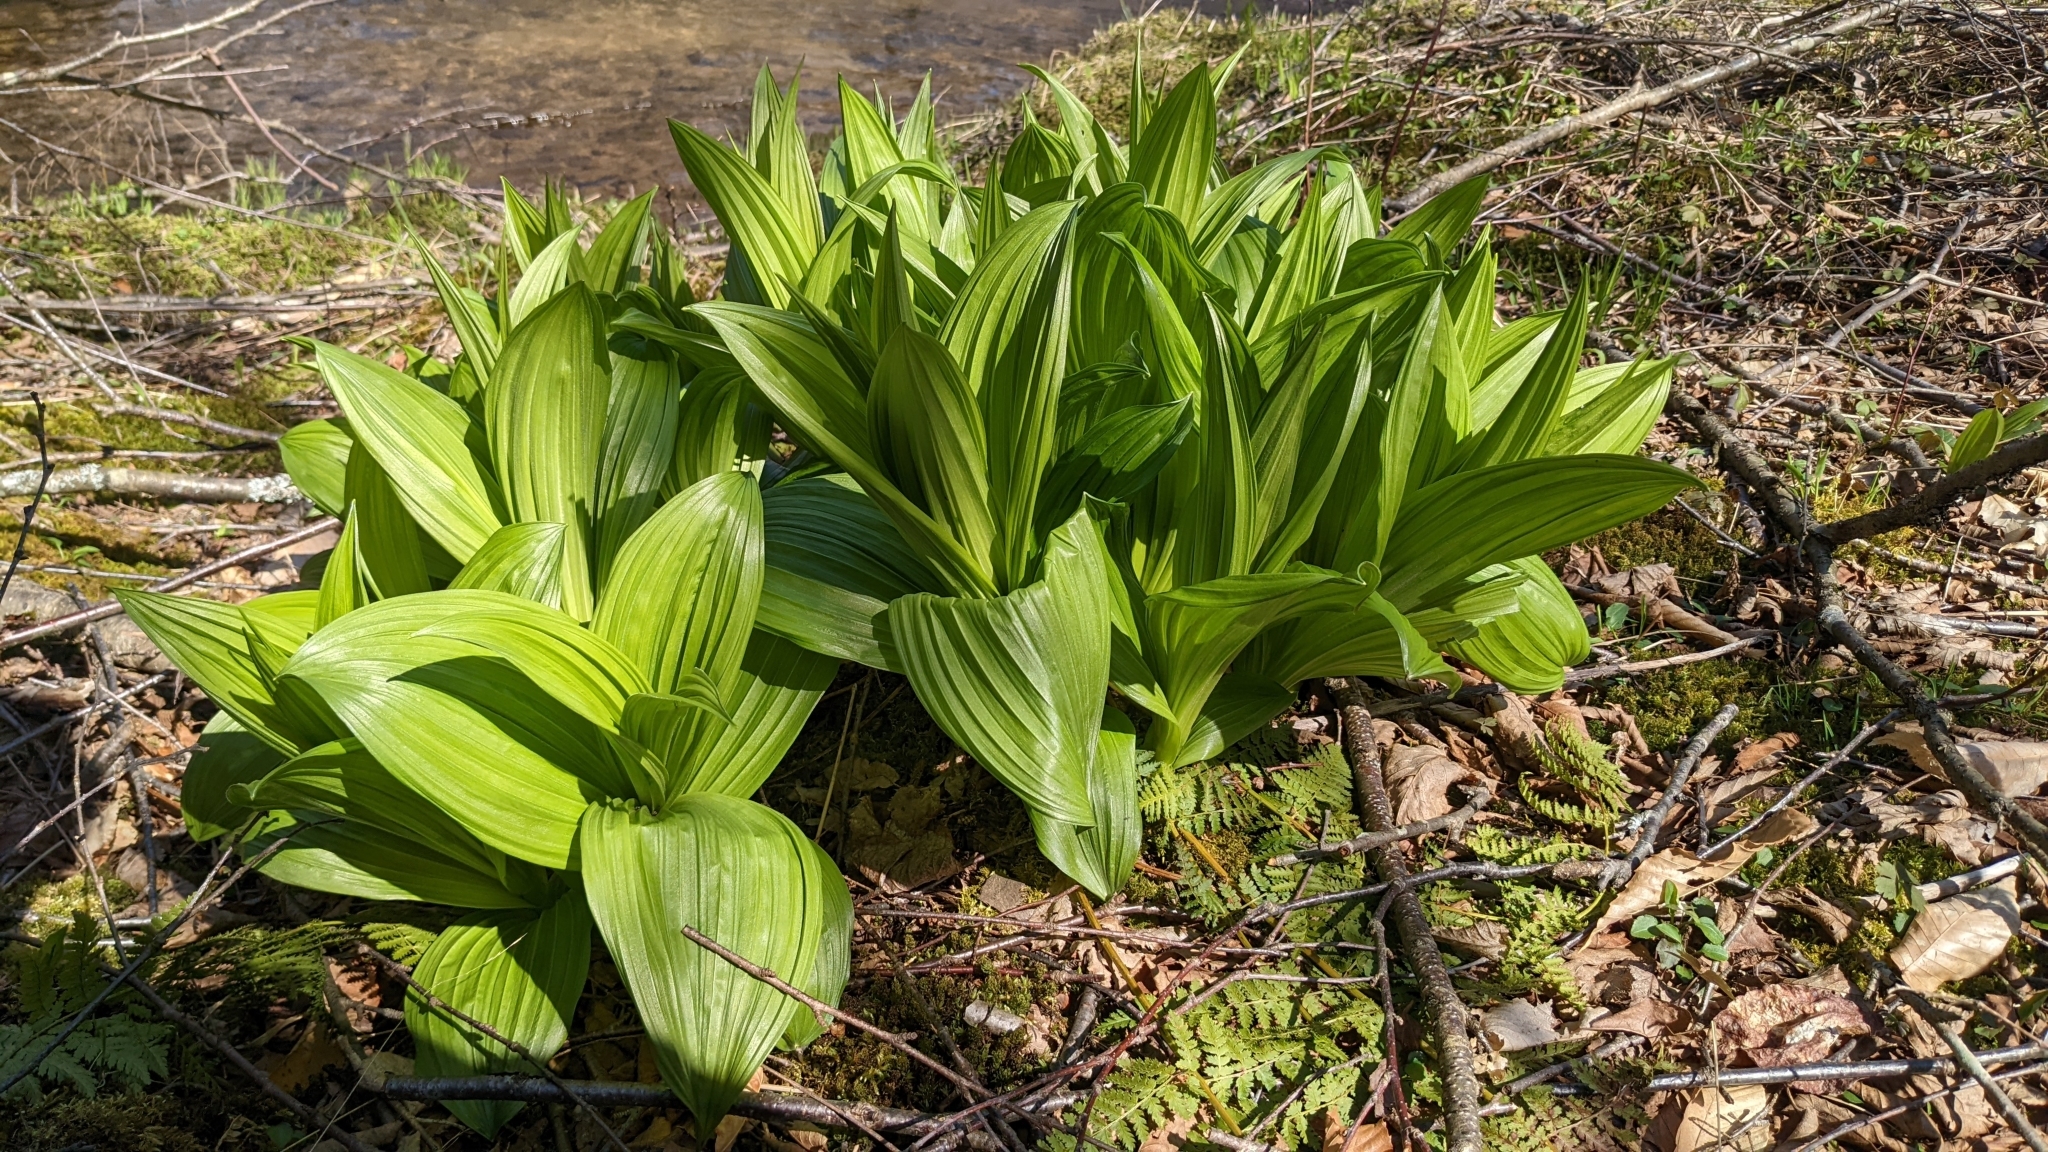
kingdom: Plantae
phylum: Tracheophyta
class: Liliopsida
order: Liliales
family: Melanthiaceae
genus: Veratrum
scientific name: Veratrum viride
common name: American false hellebore
